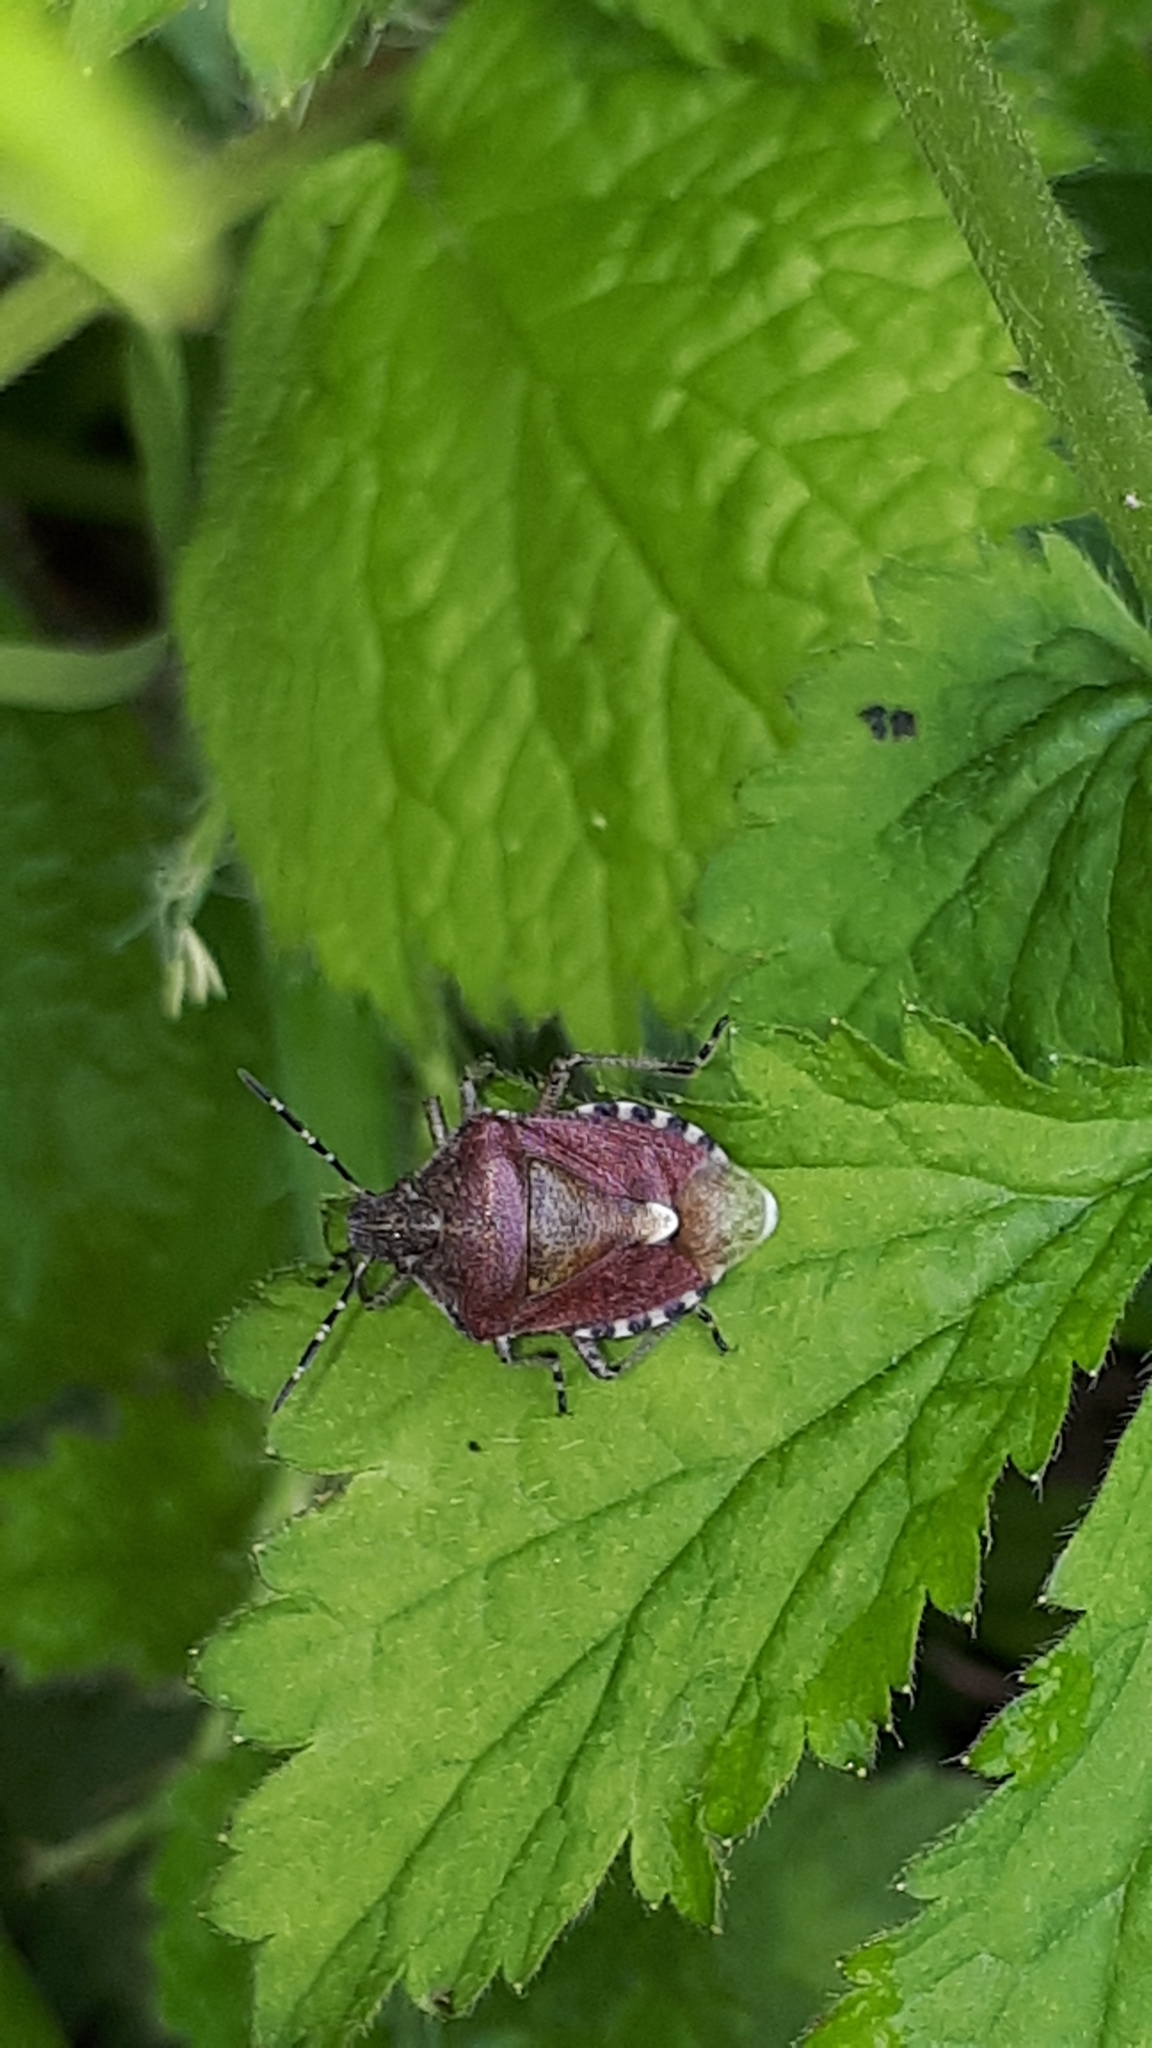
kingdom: Animalia
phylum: Arthropoda
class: Insecta
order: Hemiptera
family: Pentatomidae
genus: Dolycoris
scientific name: Dolycoris baccarum
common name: Sloe bug
